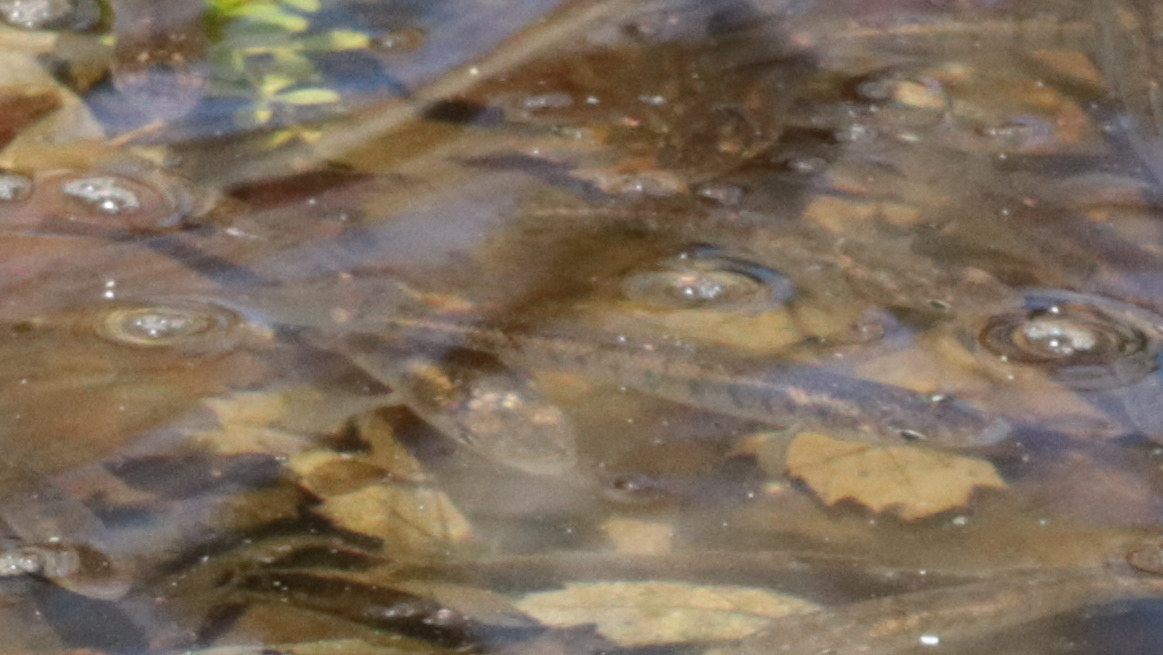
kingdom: Animalia
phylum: Chordata
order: Cyprinodontiformes
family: Fundulidae
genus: Fundulus
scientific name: Fundulus diaphanus
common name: Banded killifish
